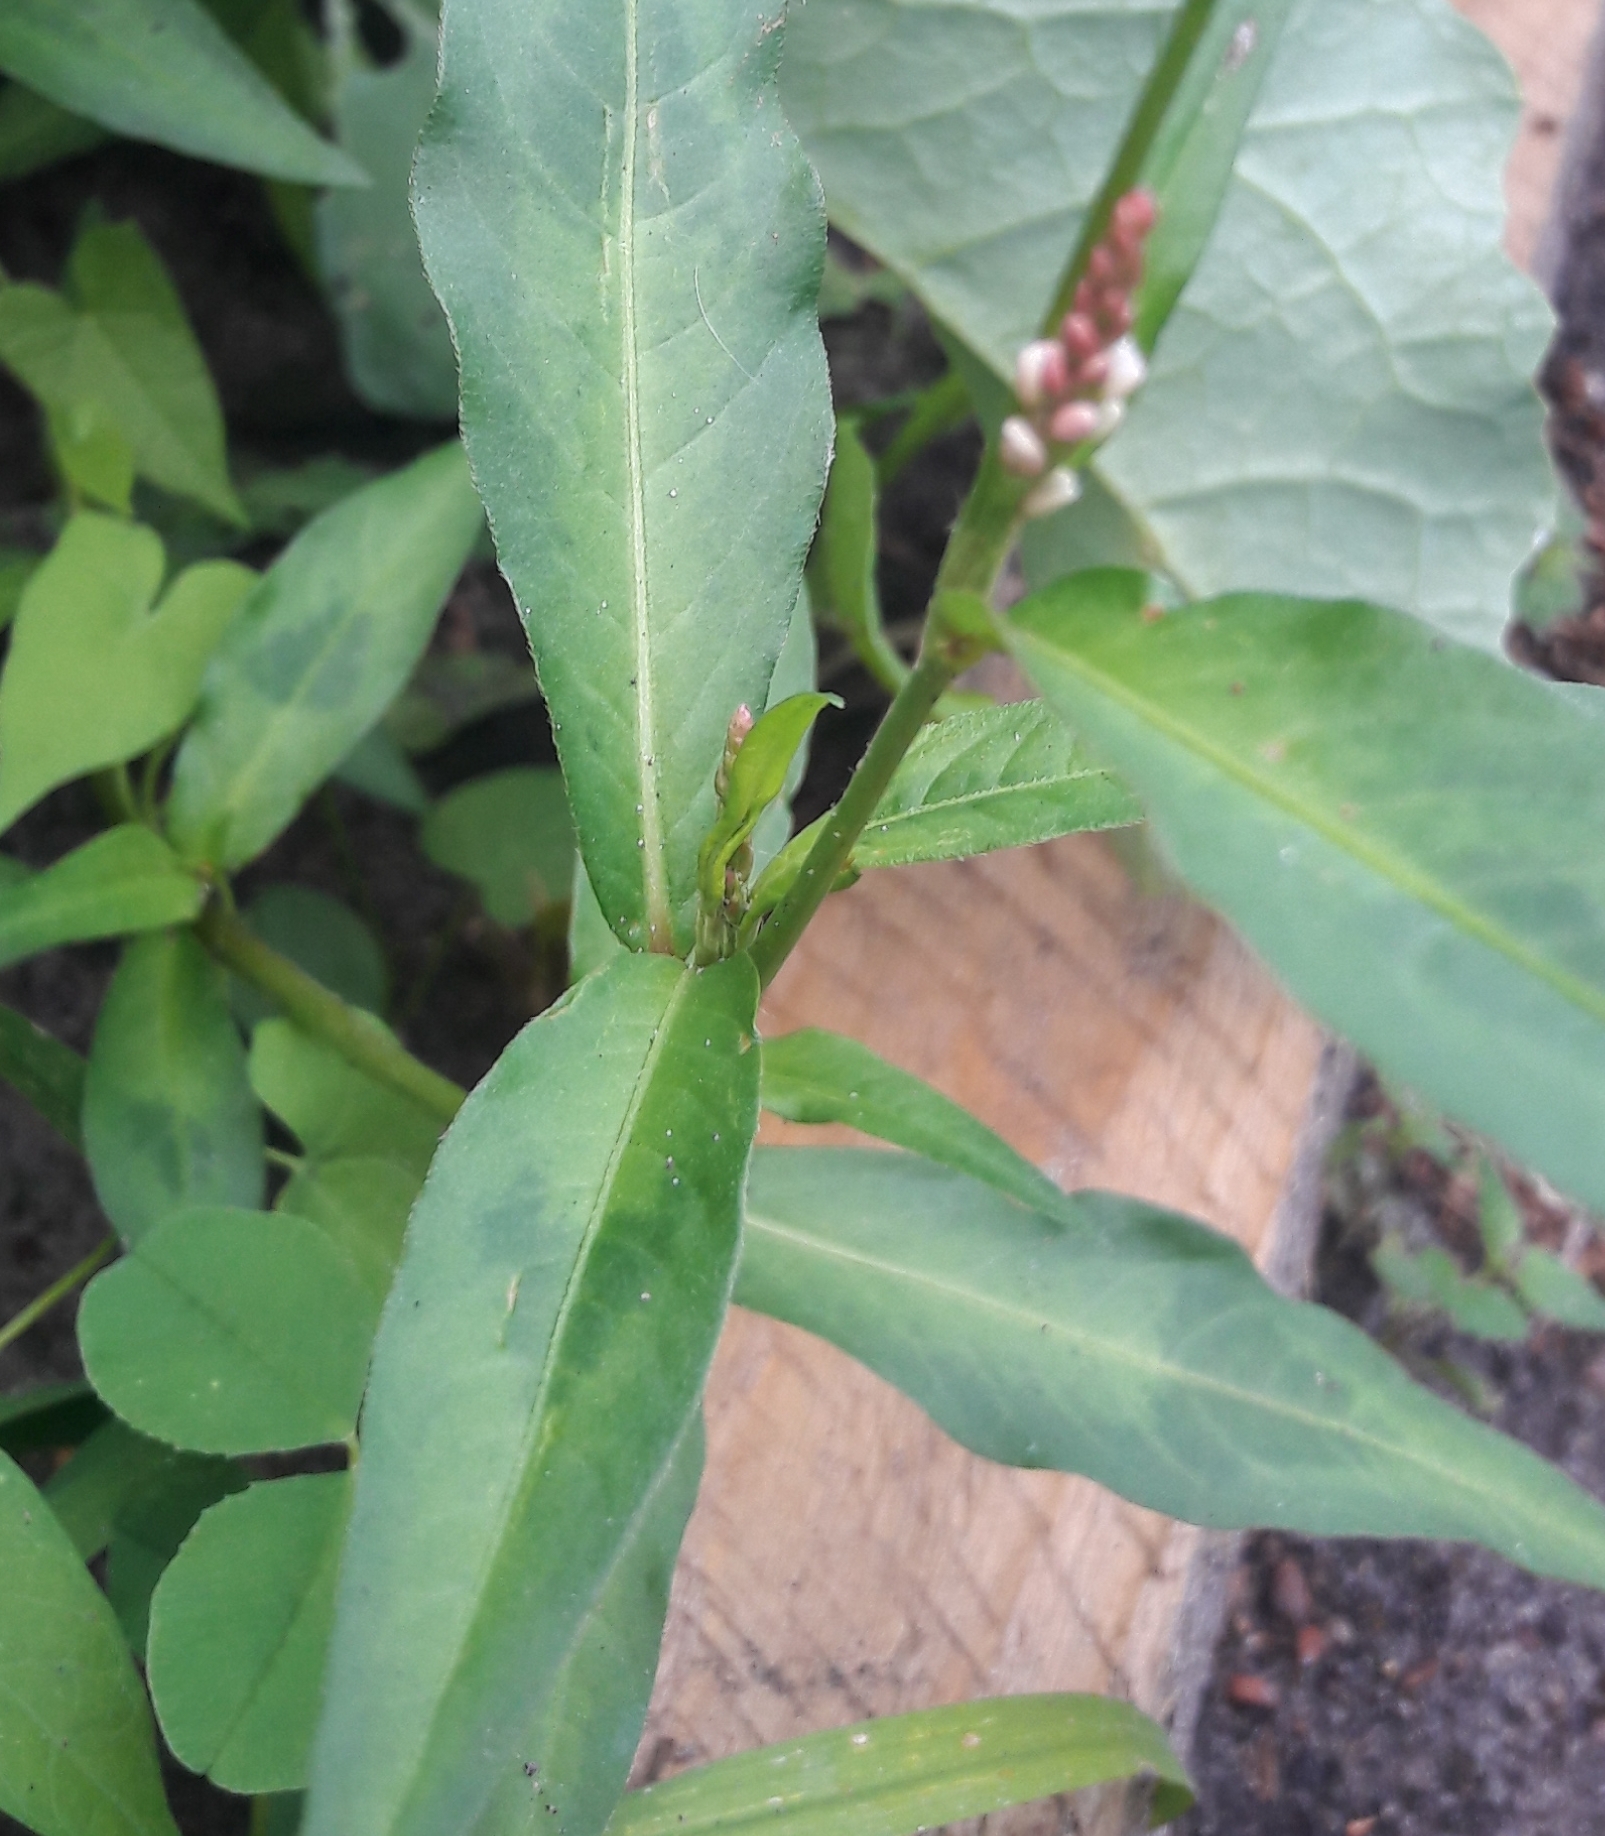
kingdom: Plantae
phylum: Tracheophyta
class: Magnoliopsida
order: Caryophyllales
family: Polygonaceae
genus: Persicaria
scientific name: Persicaria maculosa
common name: Redshank
